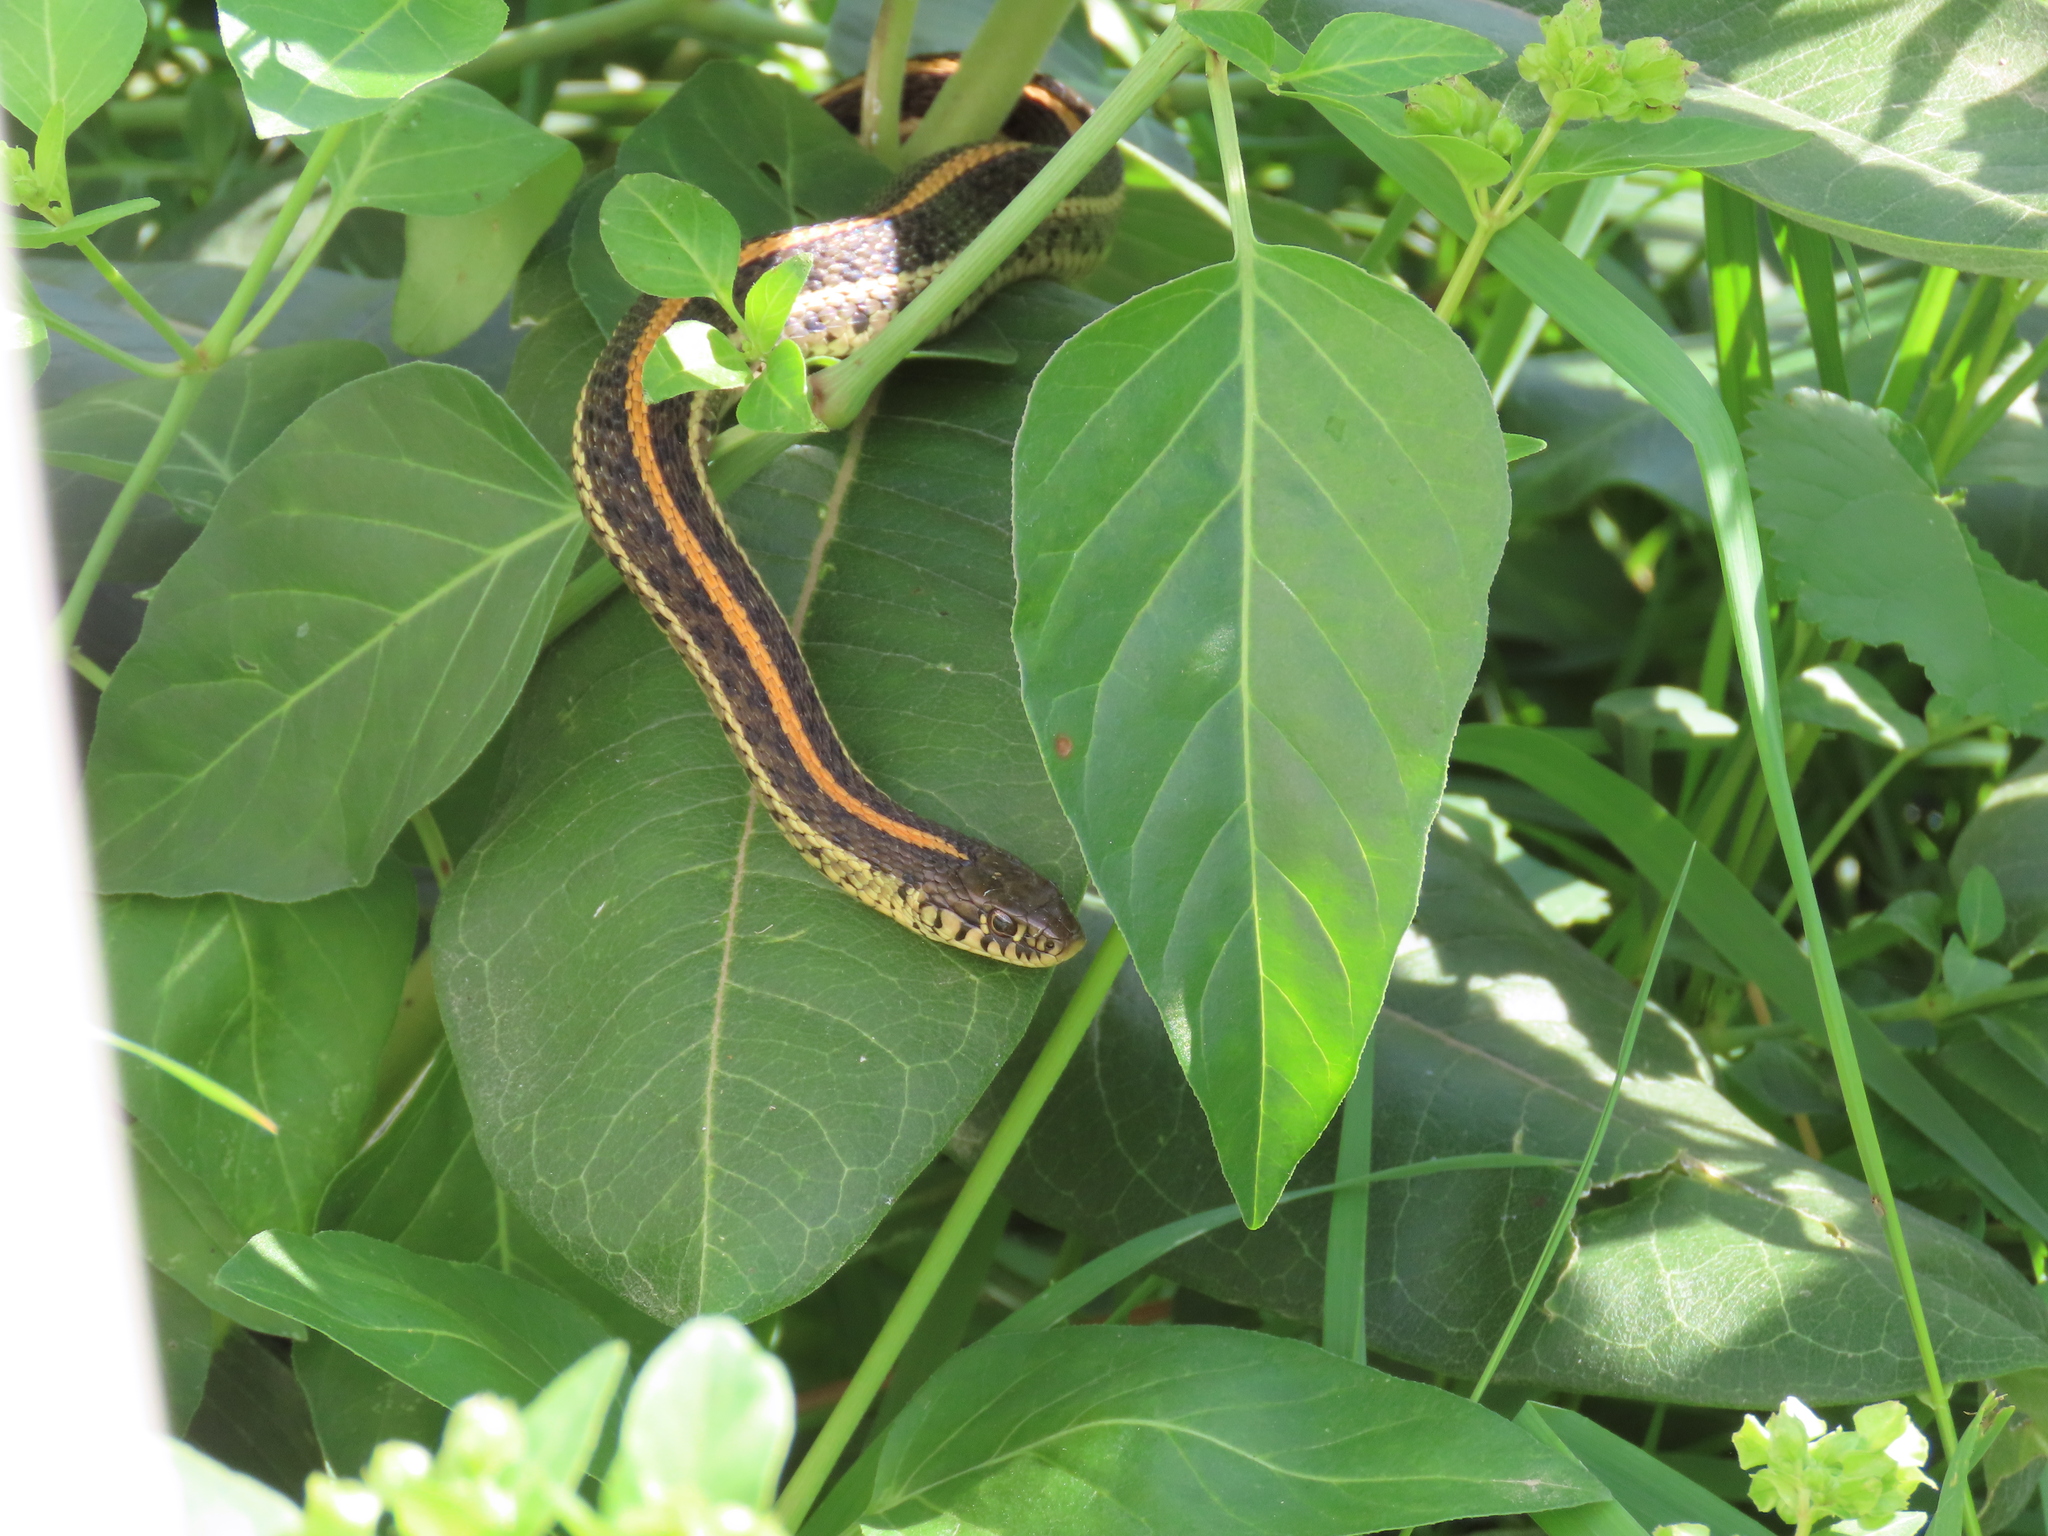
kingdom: Animalia
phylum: Chordata
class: Squamata
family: Colubridae
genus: Thamnophis
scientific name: Thamnophis radix
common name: Plains garter snake
